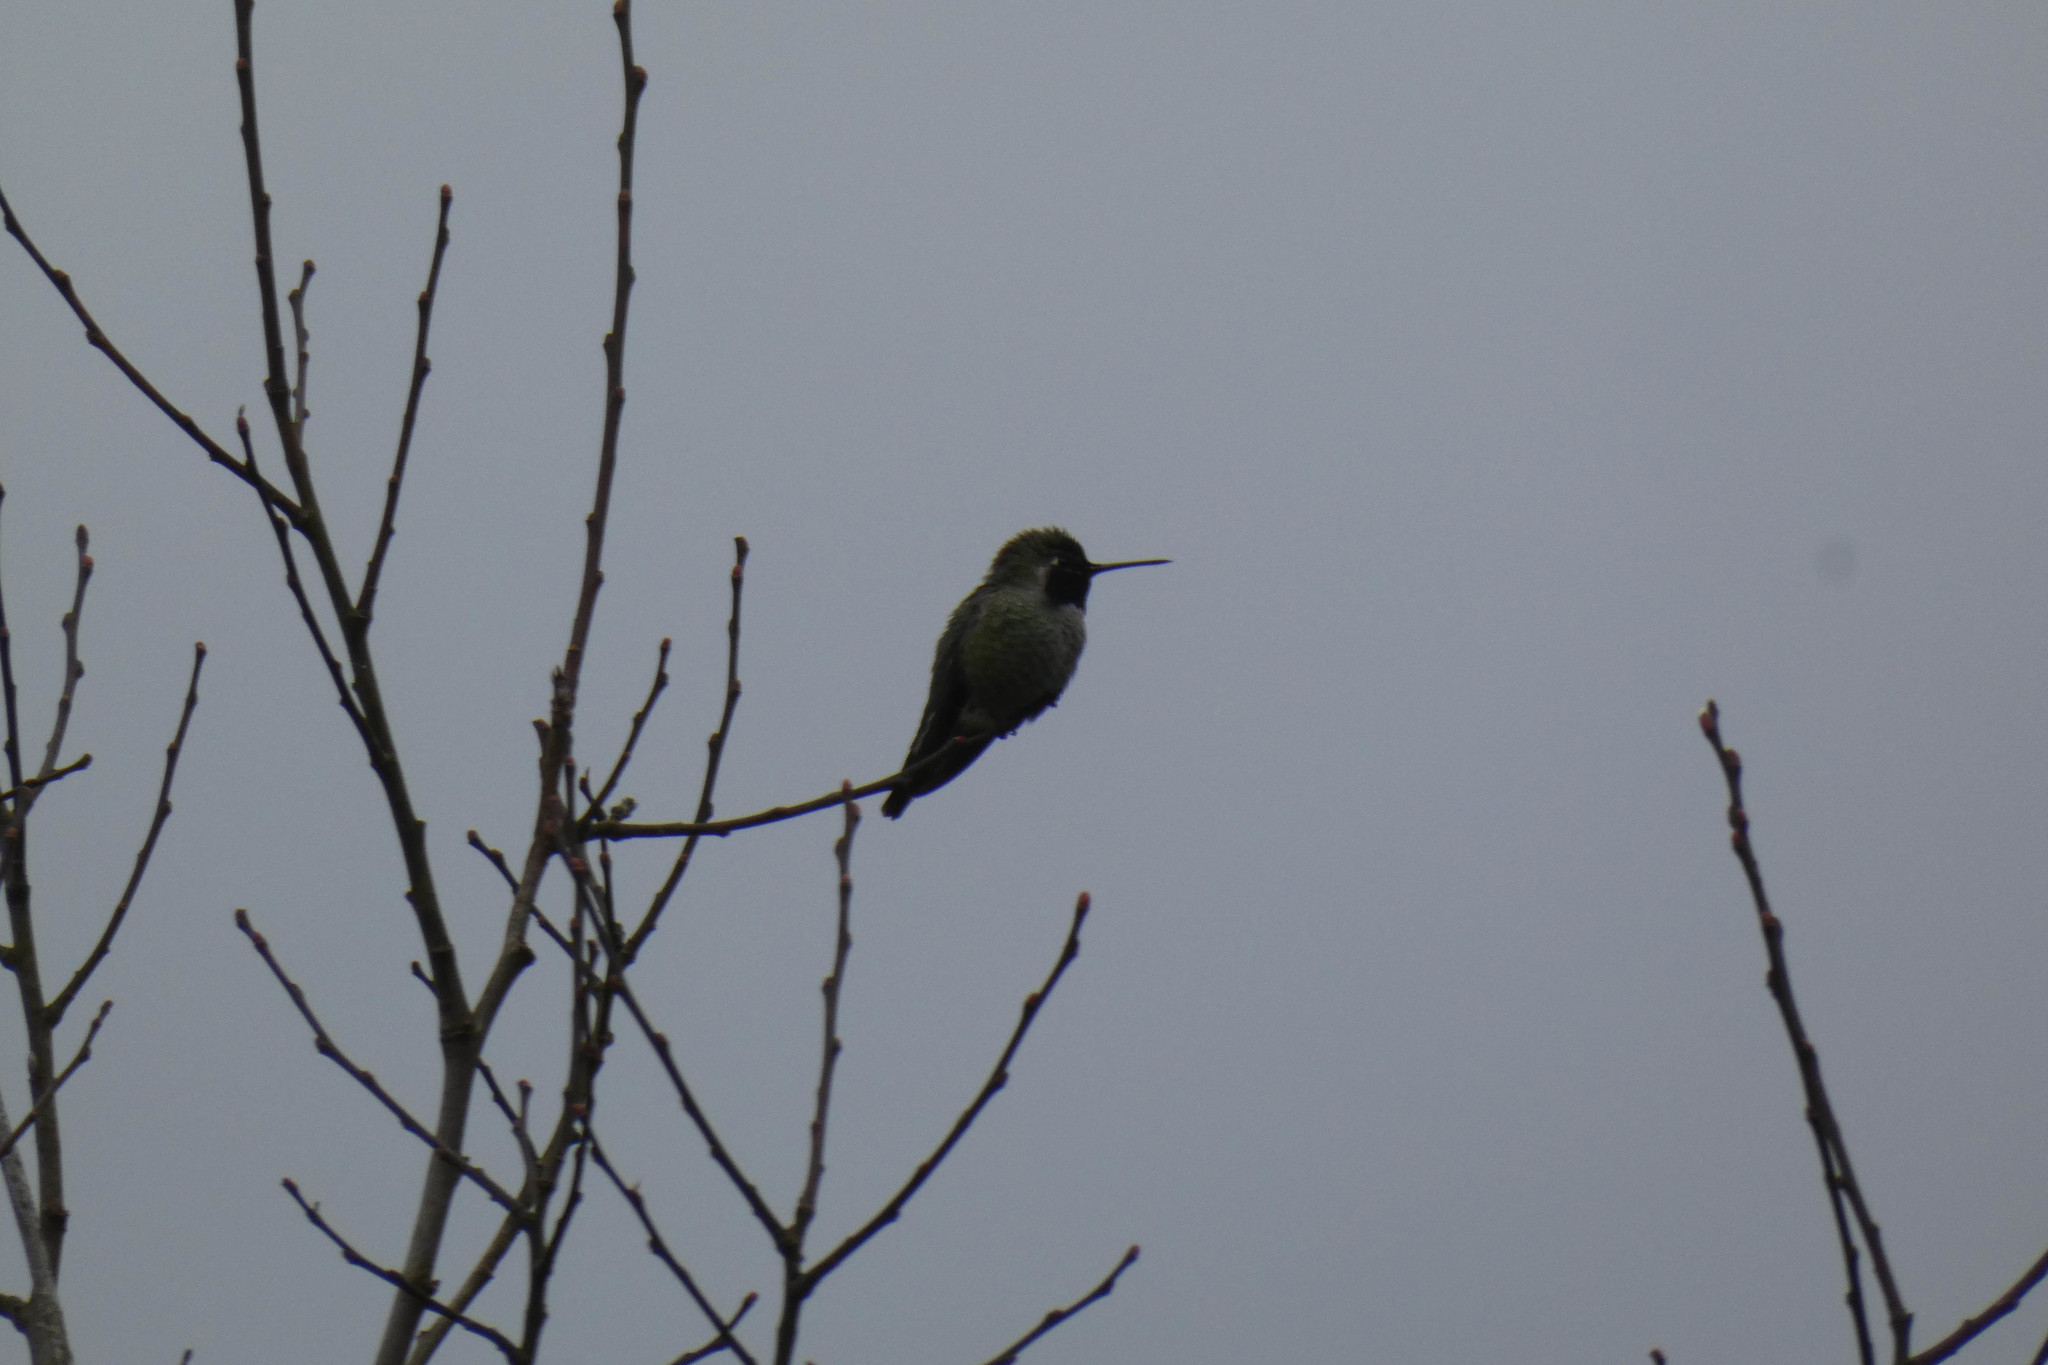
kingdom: Animalia
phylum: Chordata
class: Aves
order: Apodiformes
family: Trochilidae
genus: Calypte
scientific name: Calypte anna
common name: Anna's hummingbird
